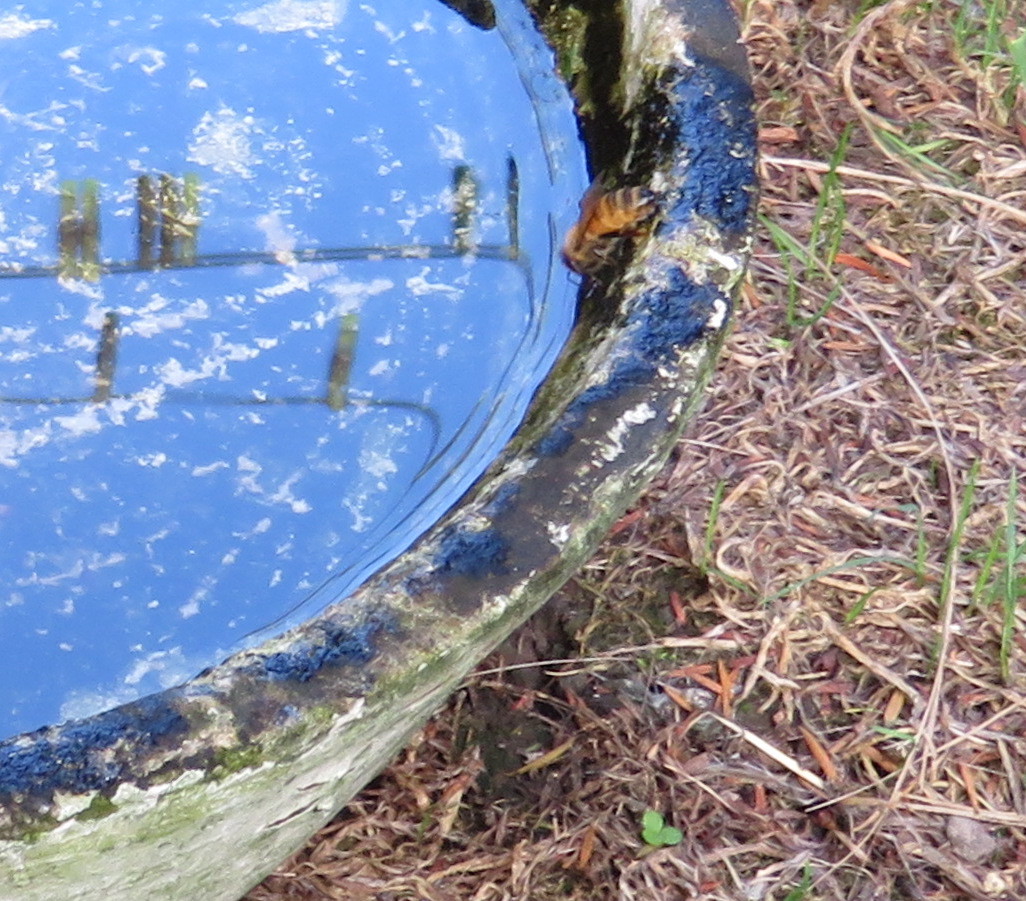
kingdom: Animalia
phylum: Arthropoda
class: Insecta
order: Hymenoptera
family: Apidae
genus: Apis
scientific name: Apis mellifera
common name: Honey bee
